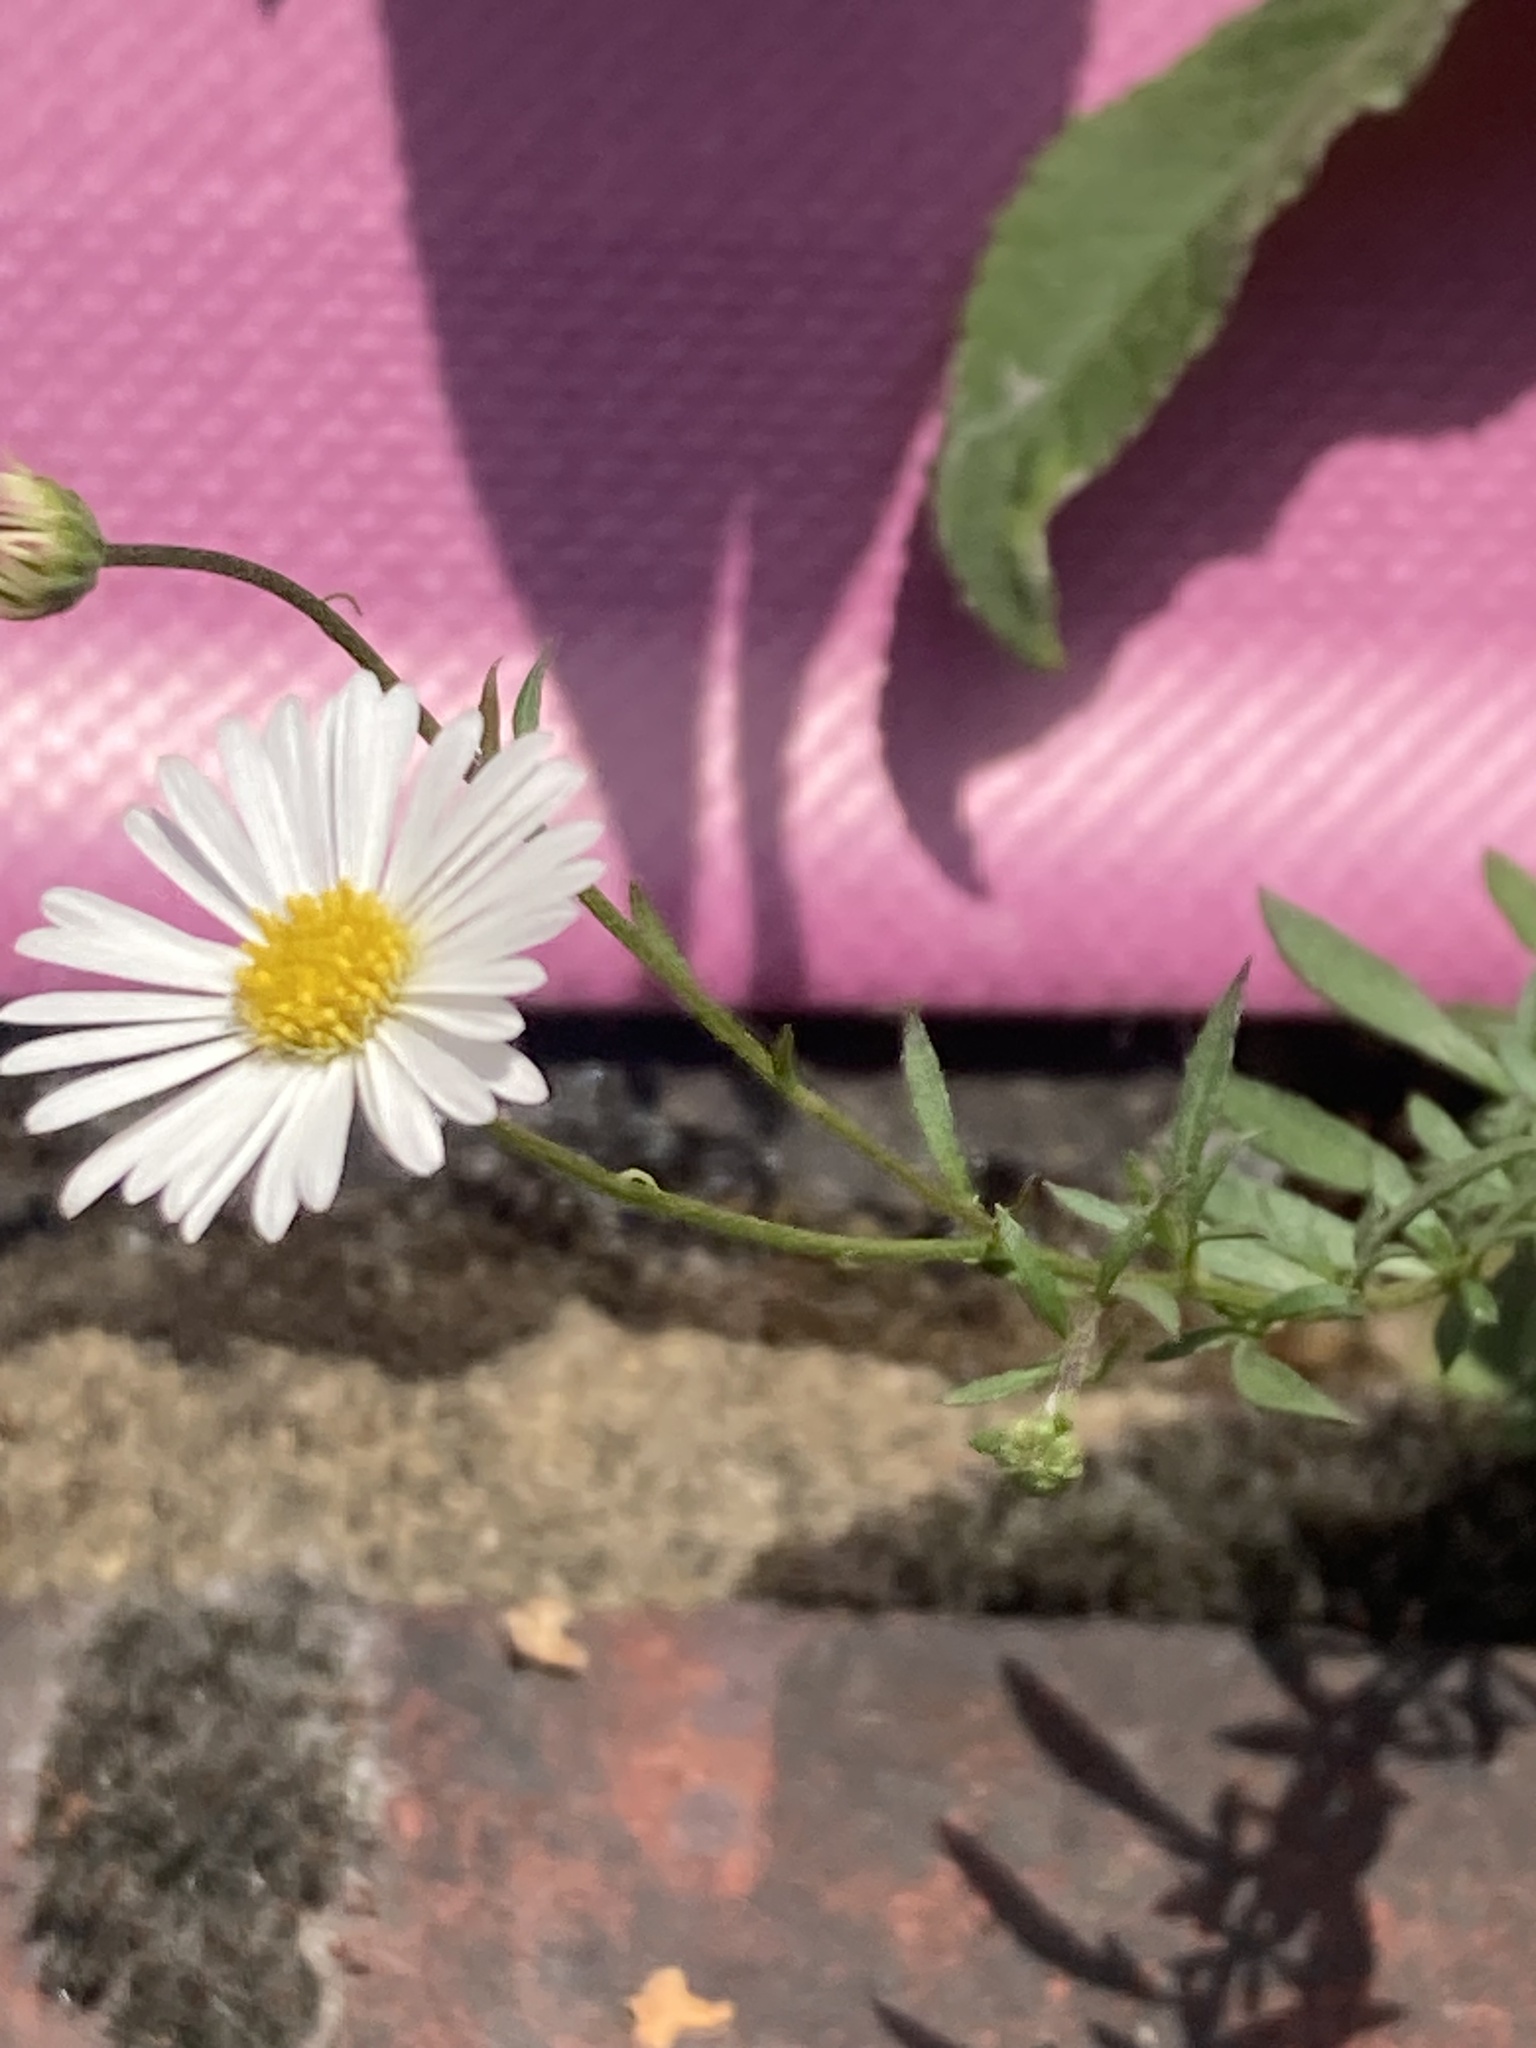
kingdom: Plantae
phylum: Tracheophyta
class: Magnoliopsida
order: Asterales
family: Asteraceae
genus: Erigeron
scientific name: Erigeron karvinskianus
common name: Mexican fleabane
